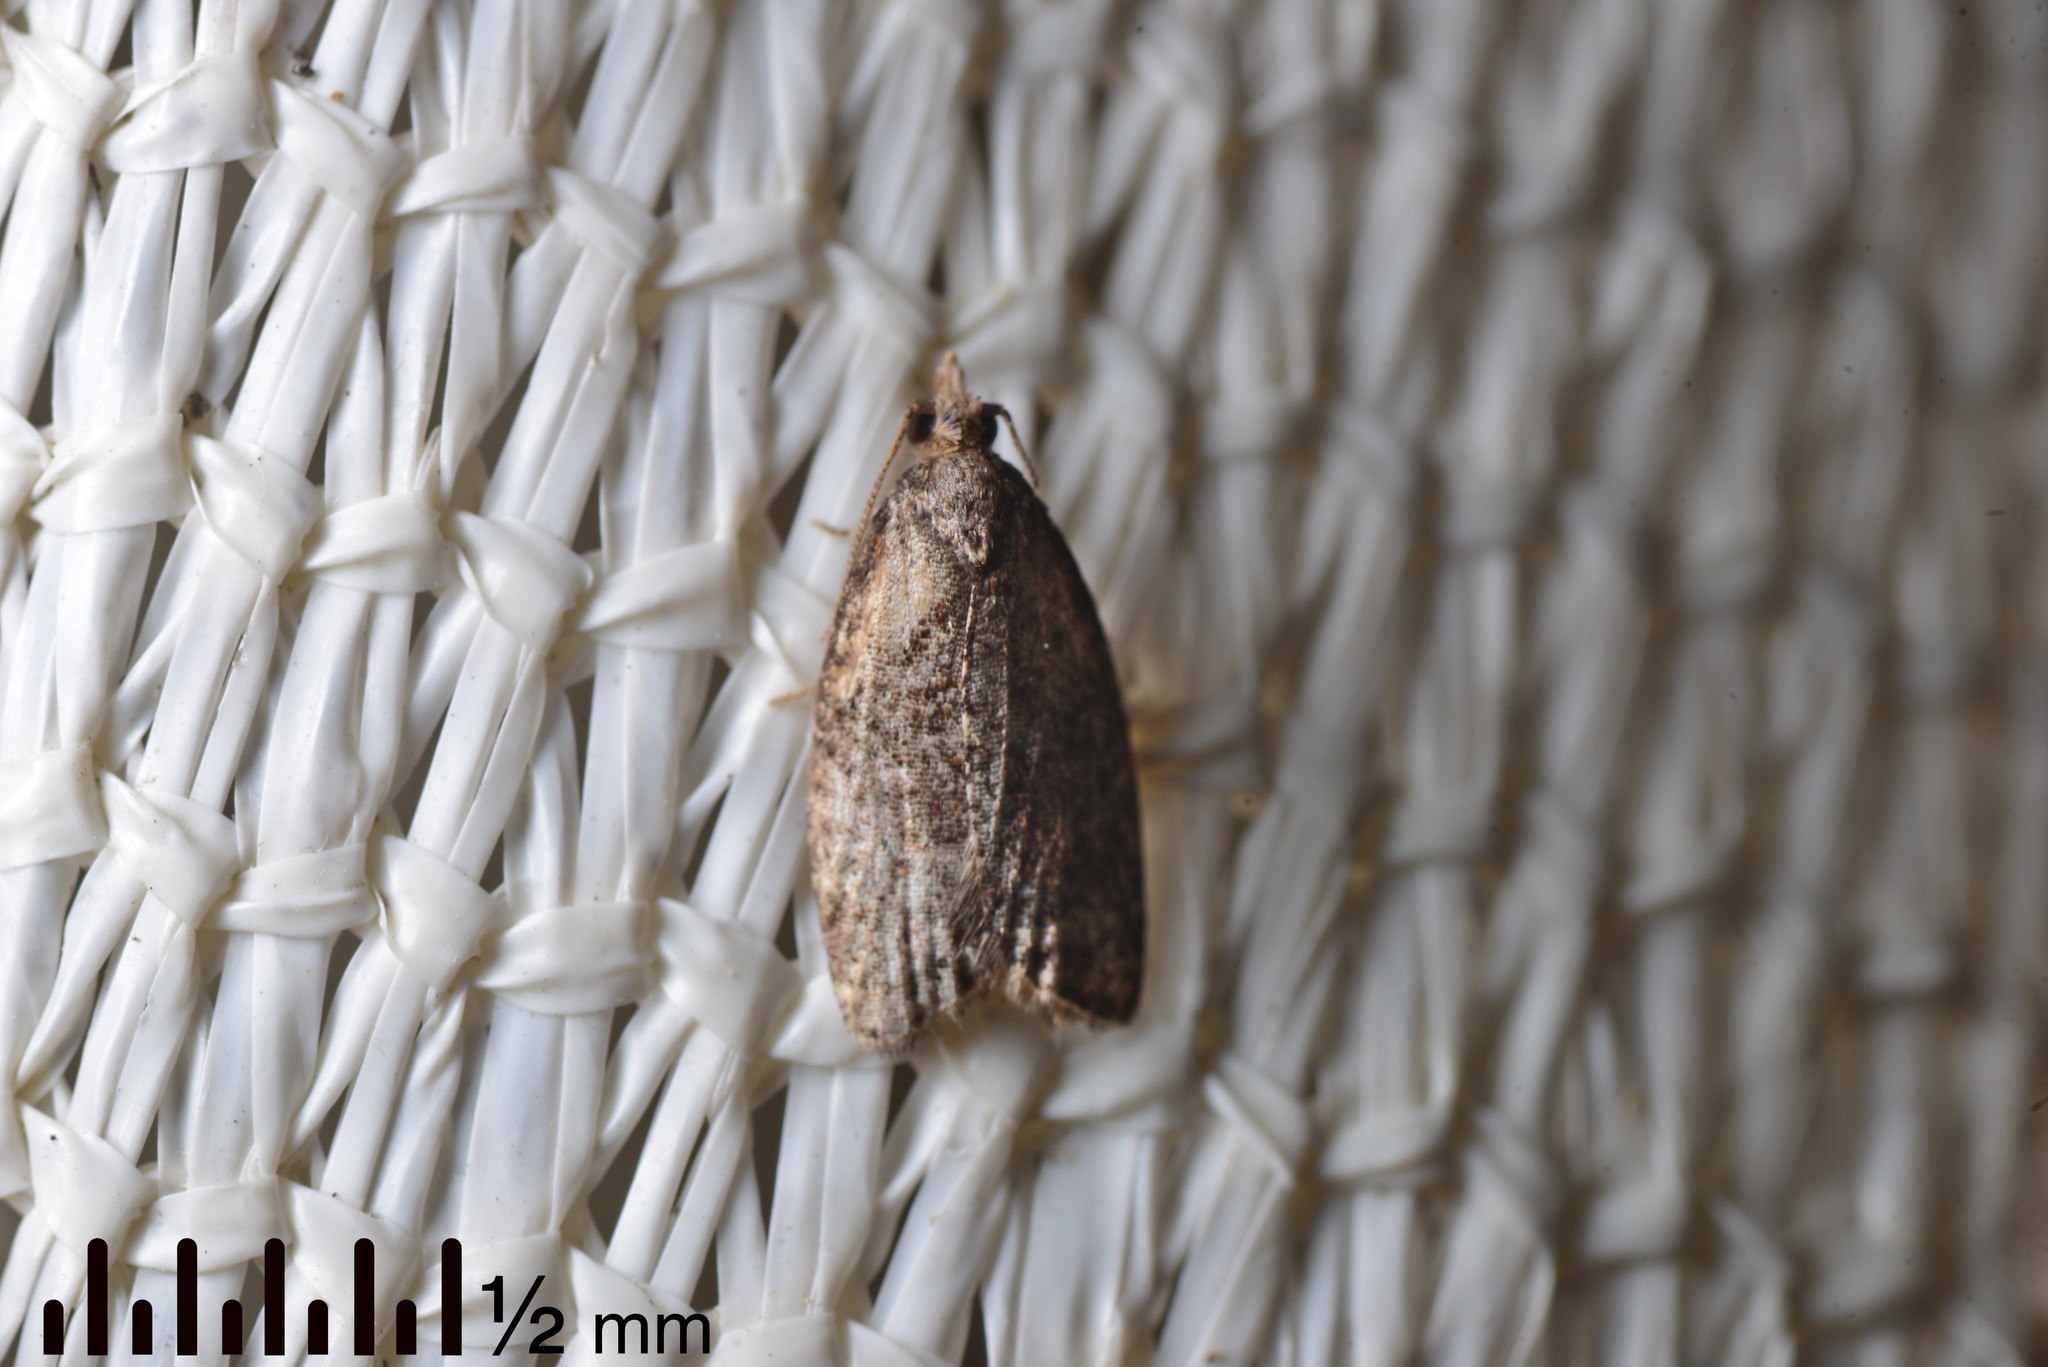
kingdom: Animalia
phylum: Arthropoda
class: Insecta
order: Lepidoptera
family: Tortricidae
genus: Capua
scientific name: Capua intractana
